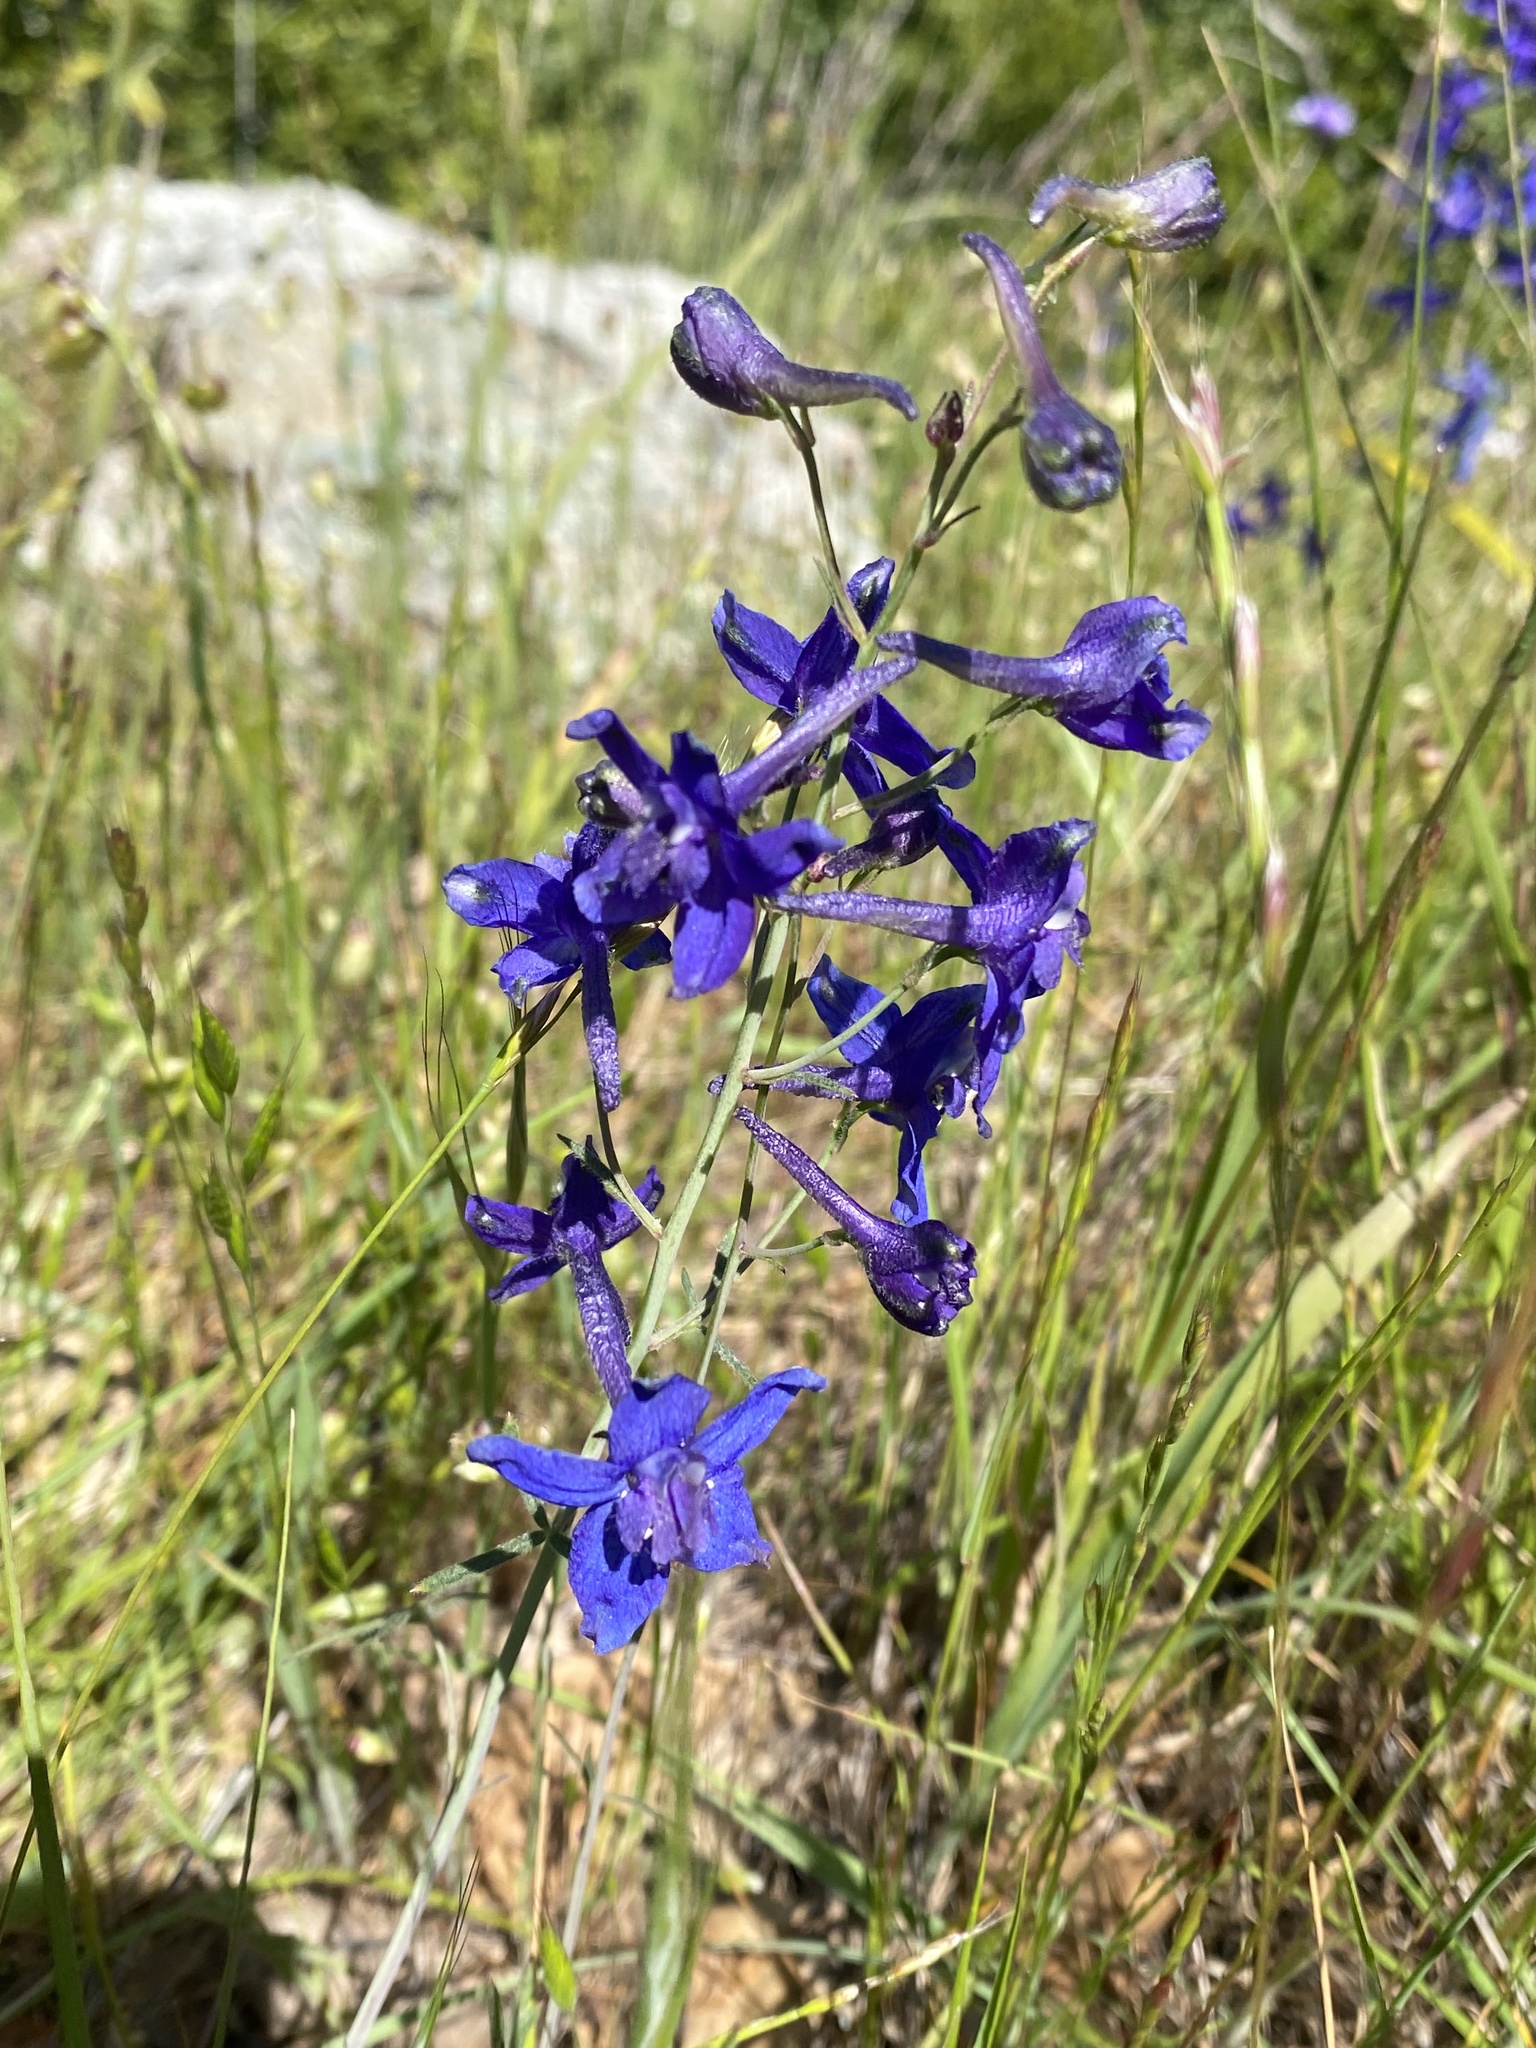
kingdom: Plantae
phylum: Tracheophyta
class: Magnoliopsida
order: Ranunculales
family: Ranunculaceae
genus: Delphinium
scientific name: Delphinium patens
